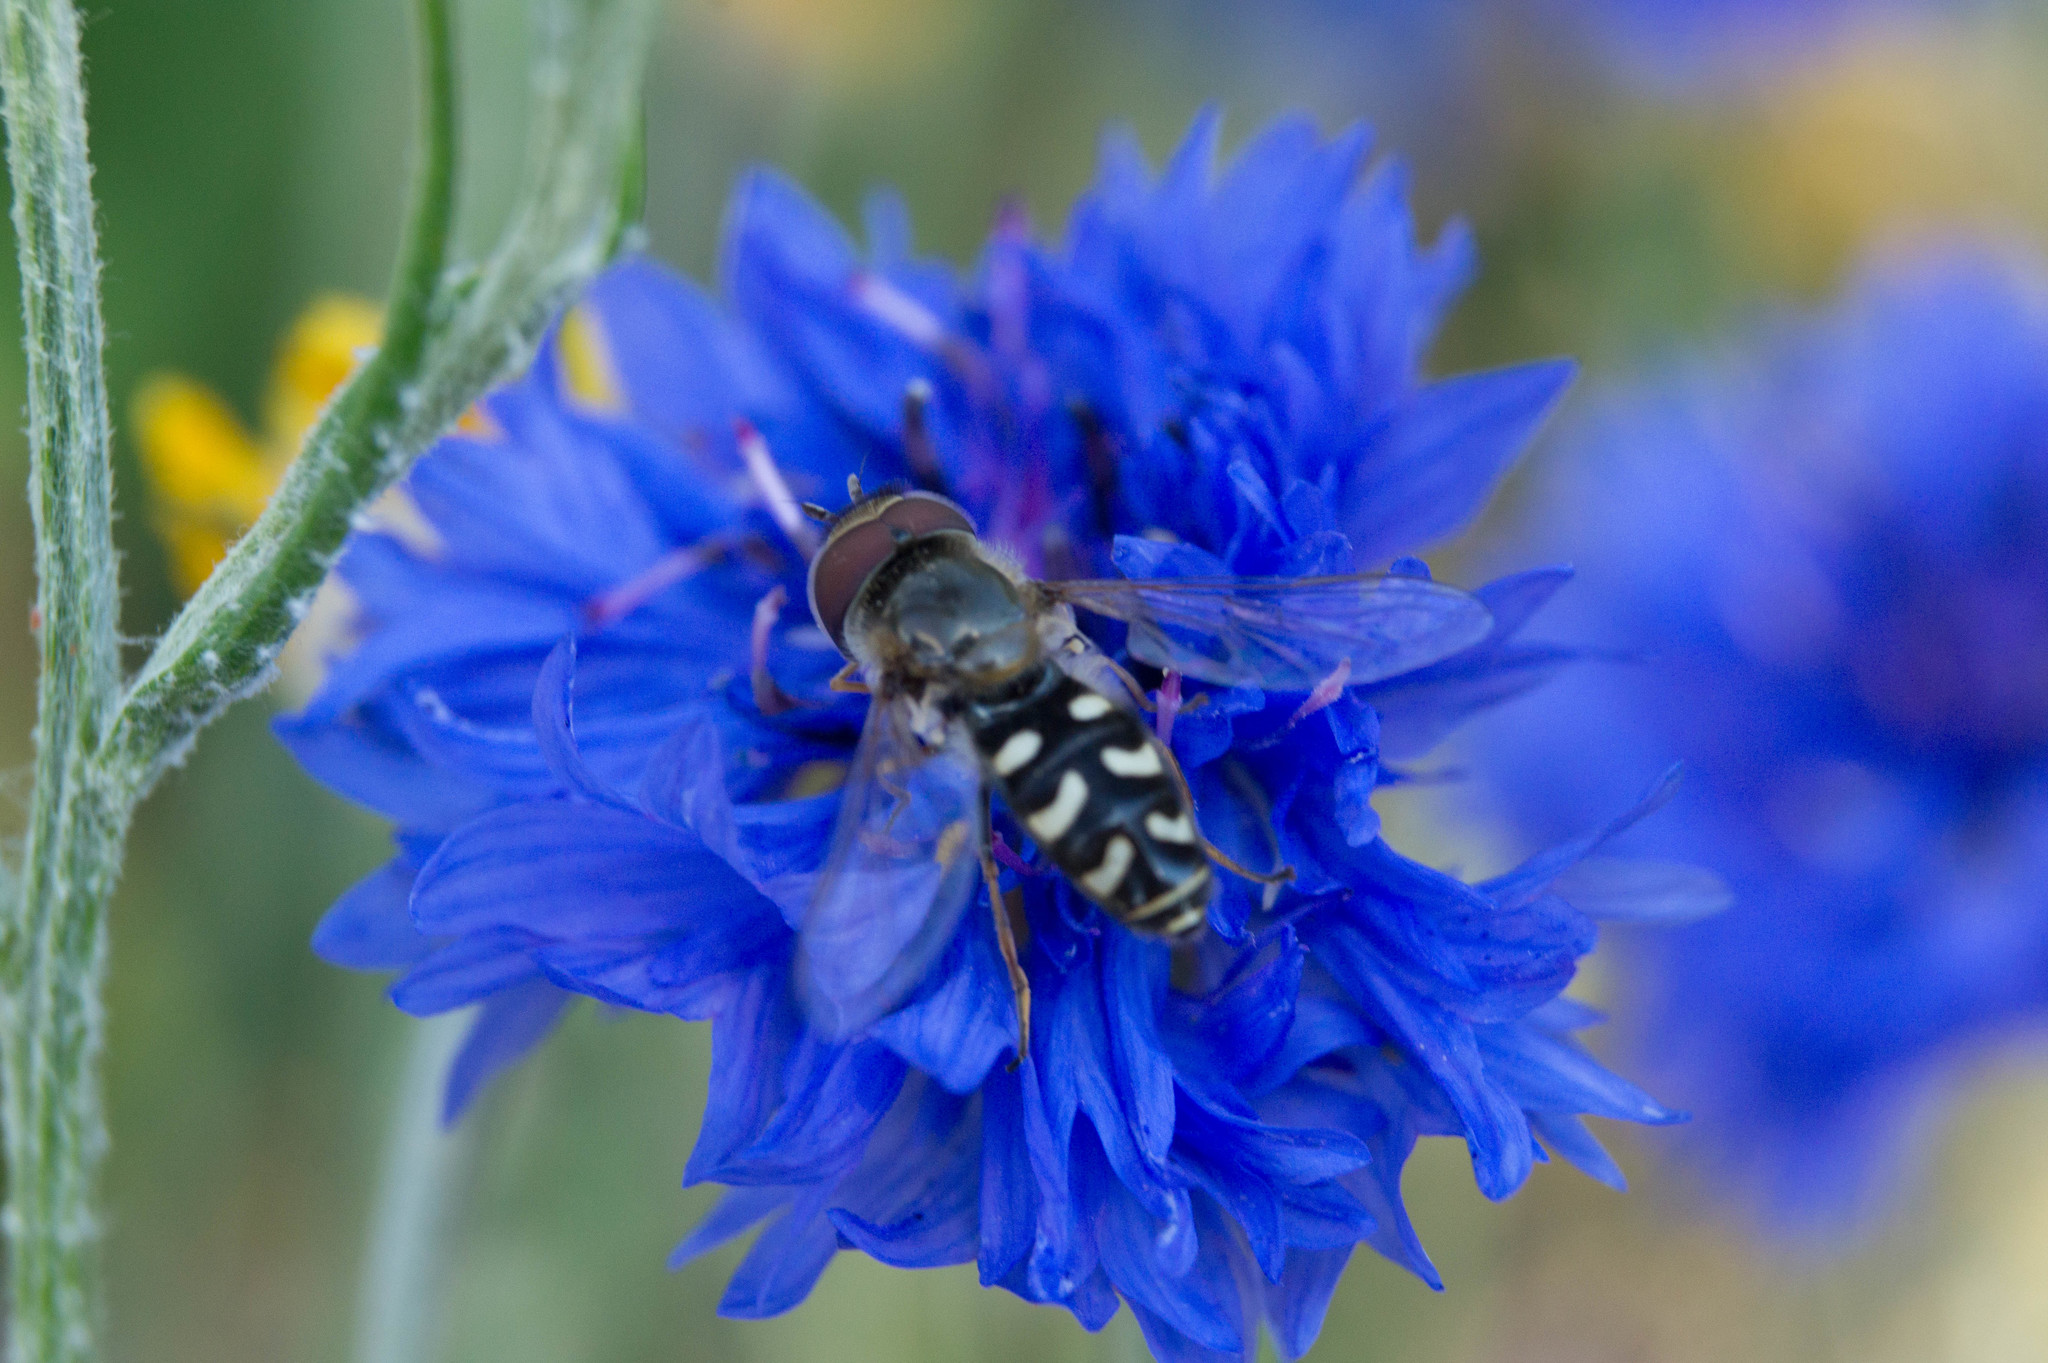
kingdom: Animalia
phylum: Arthropoda
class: Insecta
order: Diptera
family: Syrphidae
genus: Scaeva
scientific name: Scaeva pyrastri
